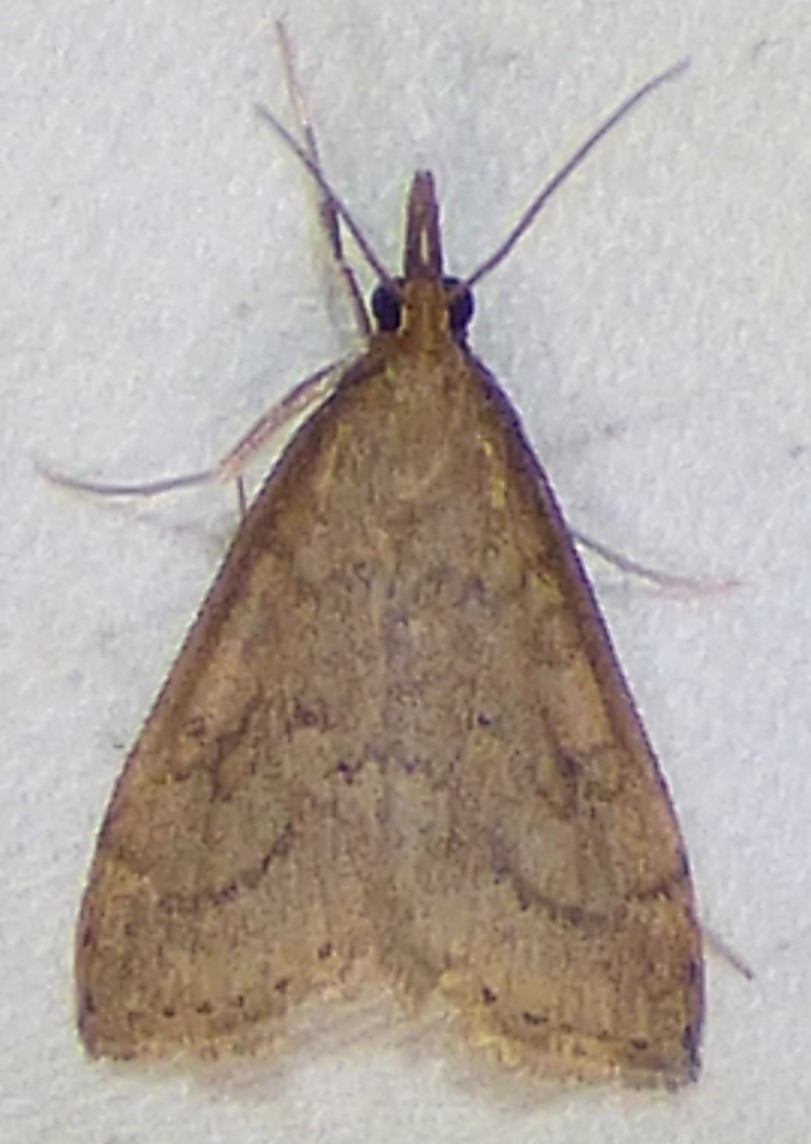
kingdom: Animalia
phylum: Arthropoda
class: Insecta
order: Lepidoptera
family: Crambidae
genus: Udea
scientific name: Udea rubigalis
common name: Celery leaftier moth
